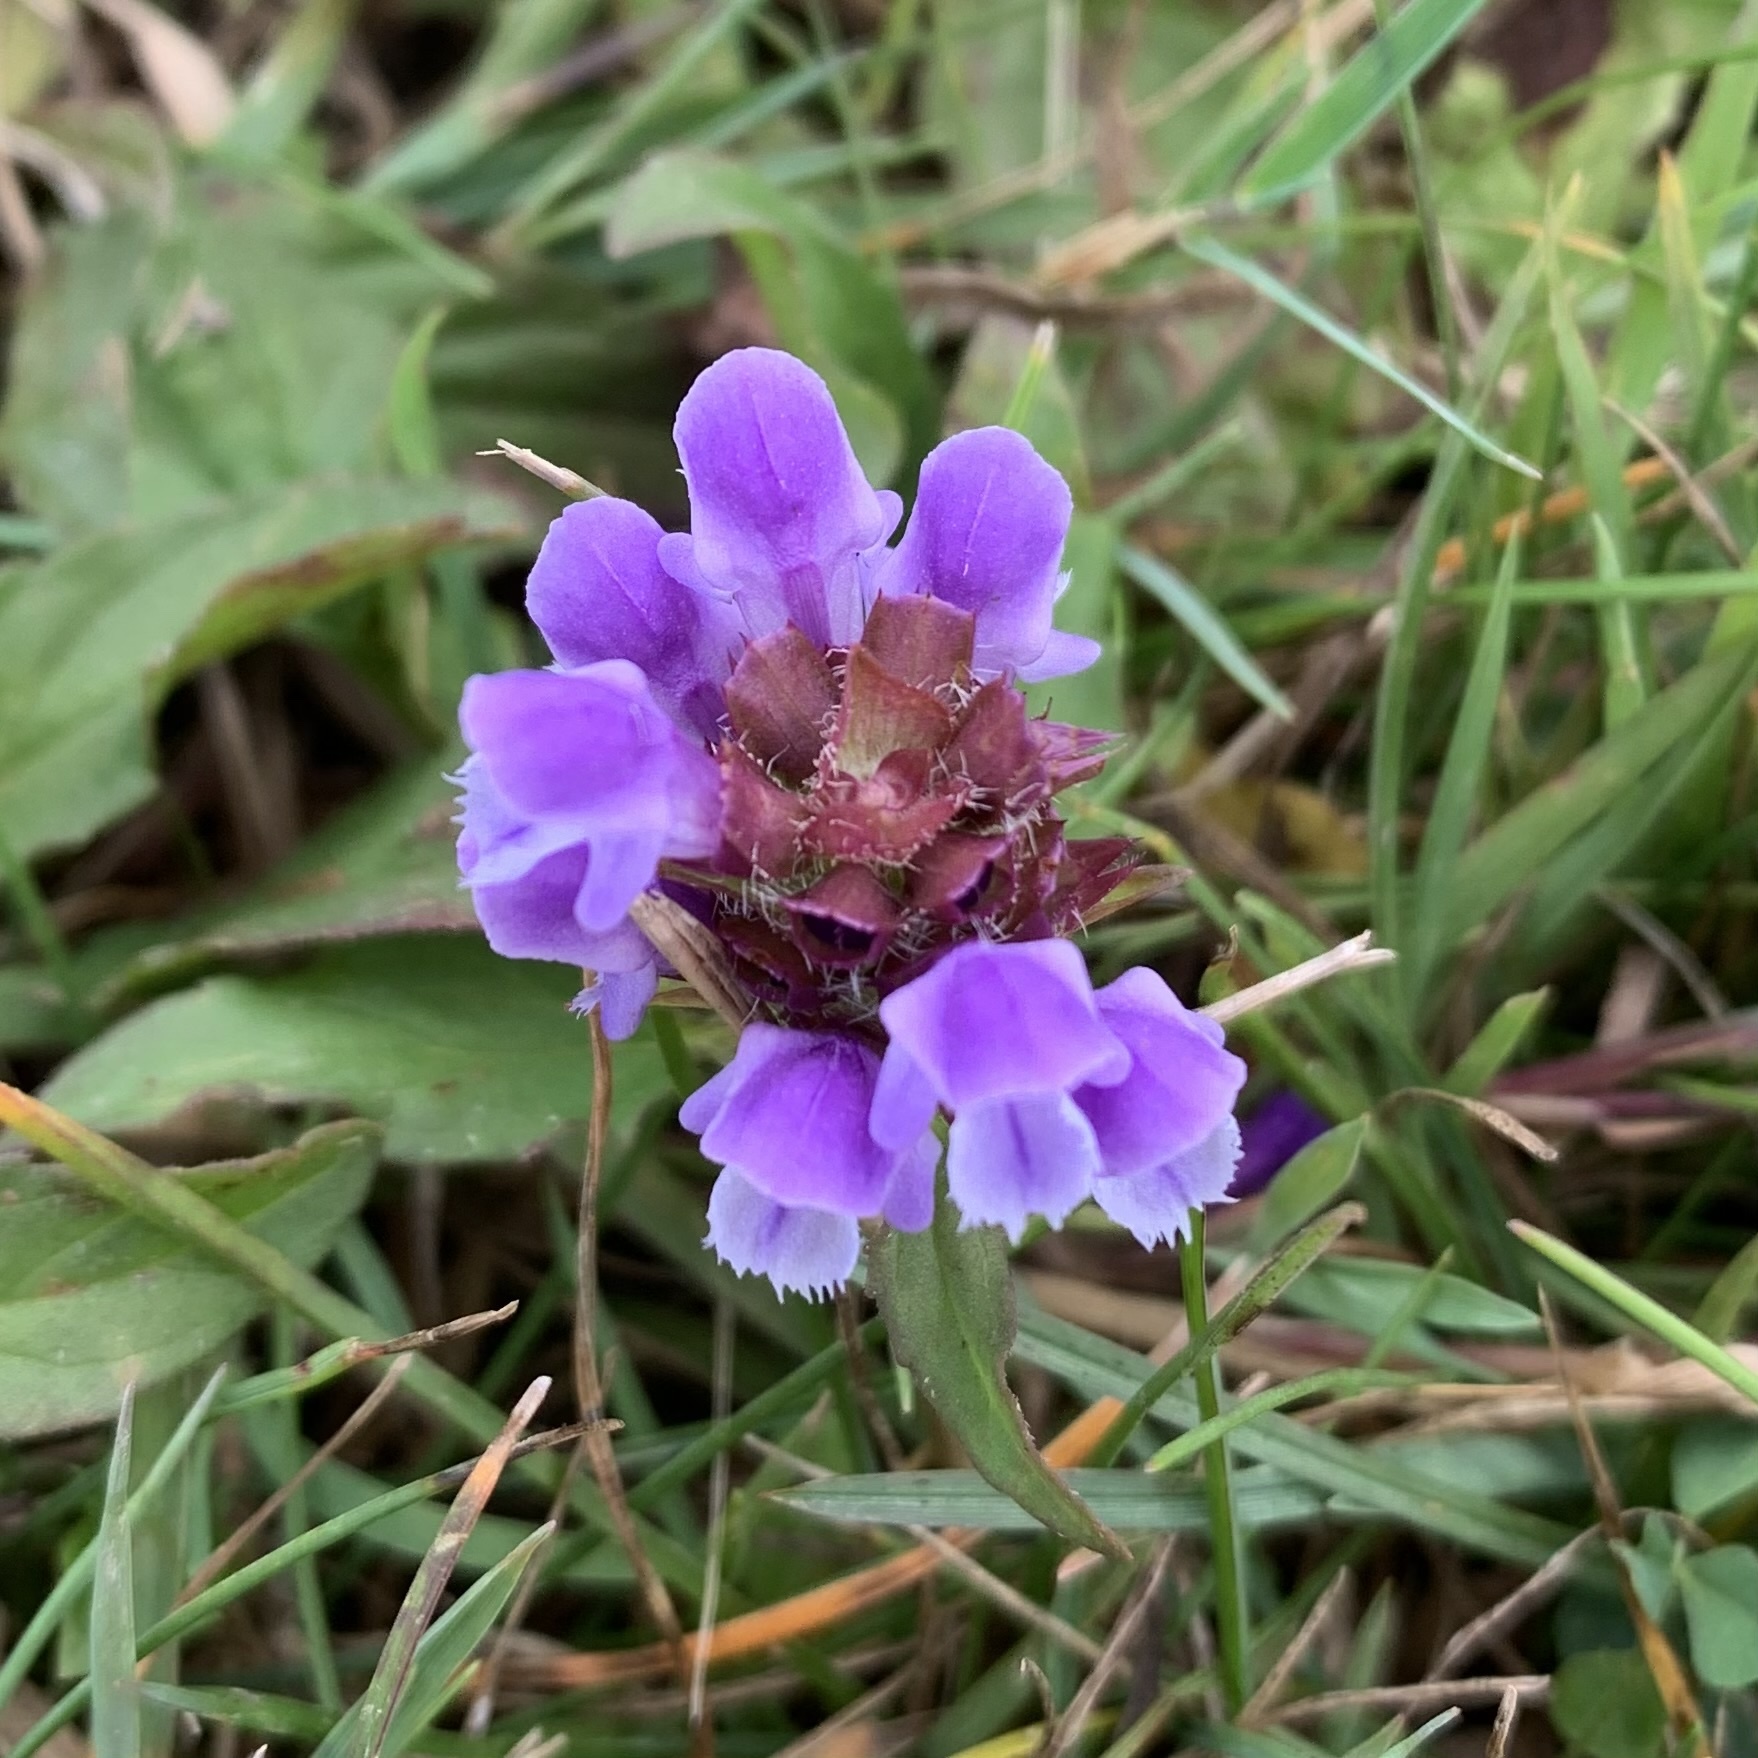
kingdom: Plantae
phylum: Tracheophyta
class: Magnoliopsida
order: Lamiales
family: Lamiaceae
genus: Prunella
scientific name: Prunella vulgaris
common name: Heal-all
